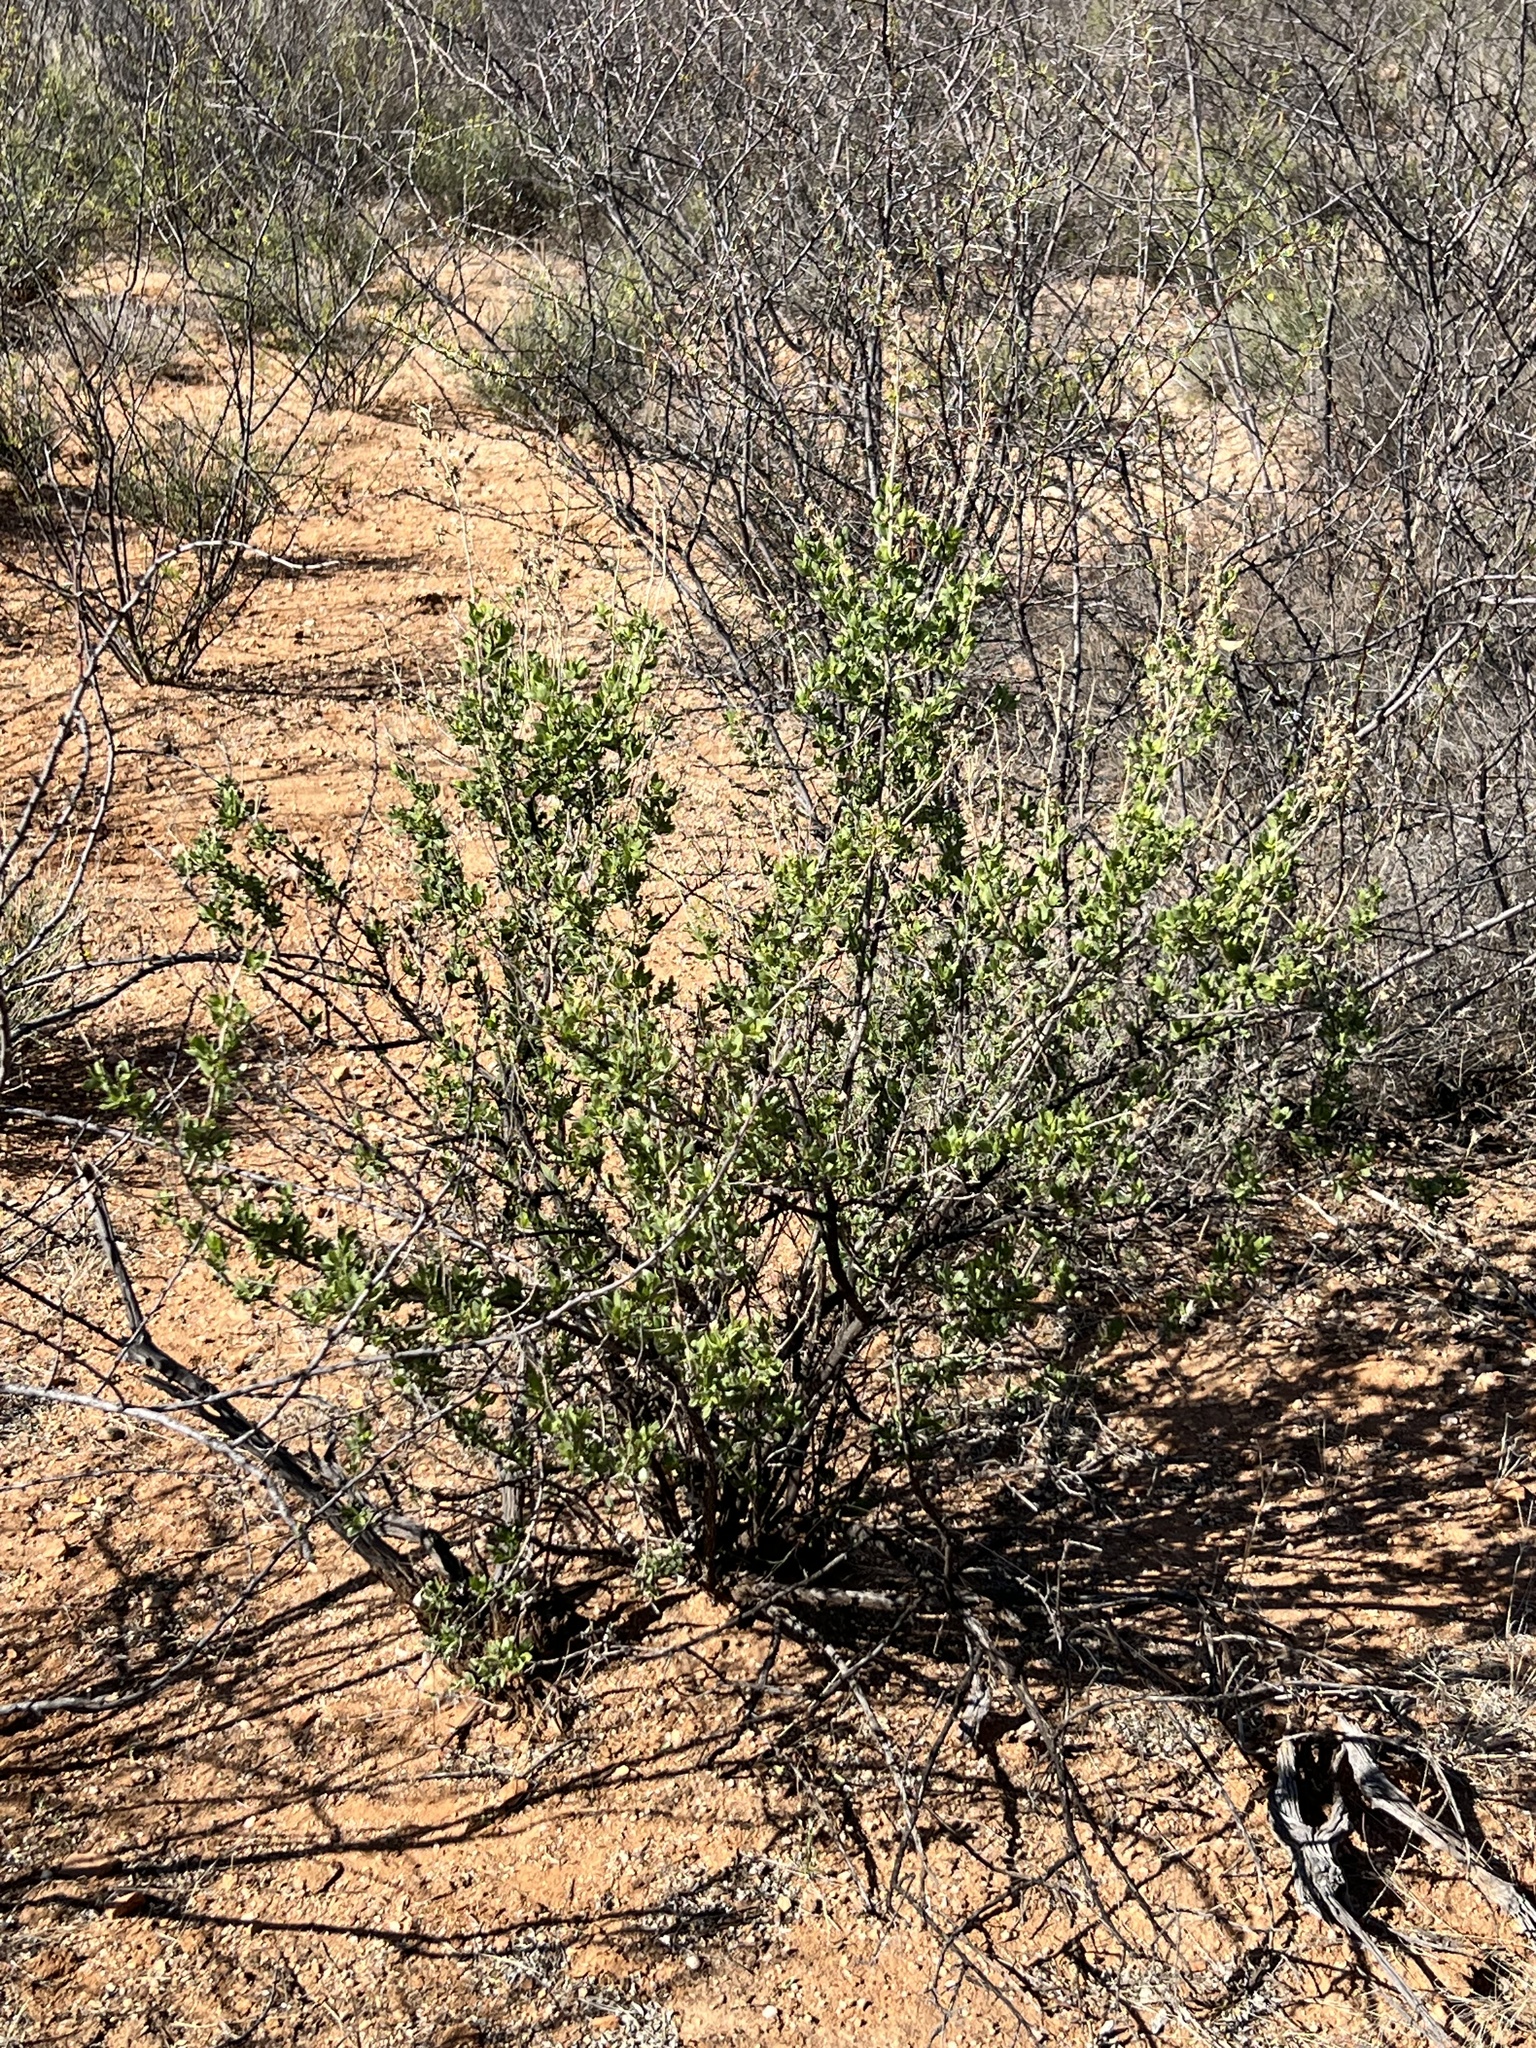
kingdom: Plantae
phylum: Tracheophyta
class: Magnoliopsida
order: Asterales
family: Asteraceae
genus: Flourensia
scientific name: Flourensia cernua
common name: Varnishbush
